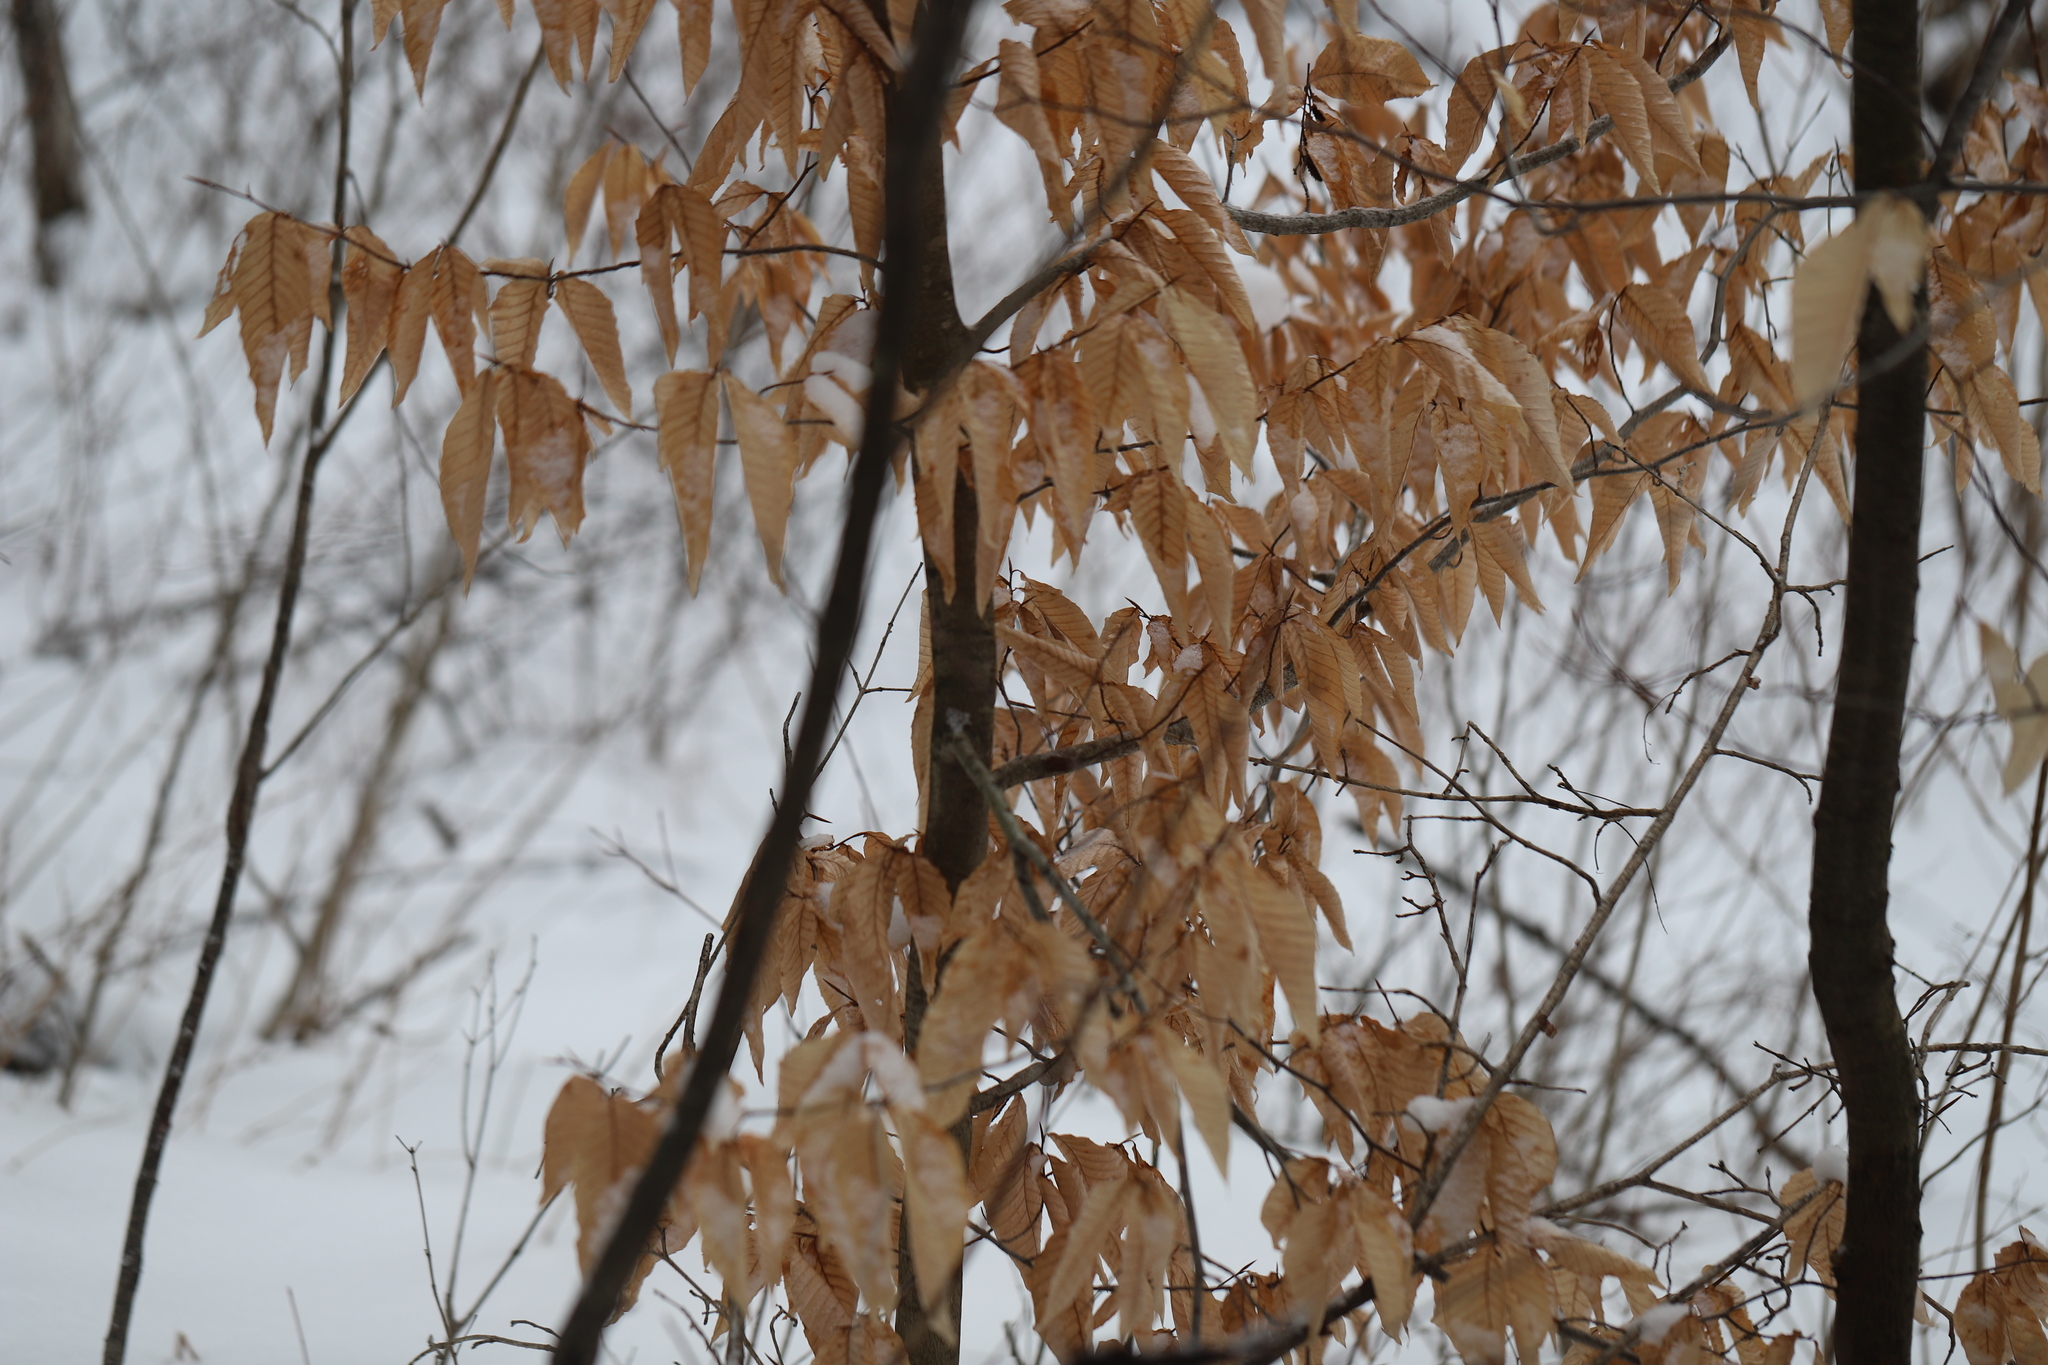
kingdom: Plantae
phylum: Tracheophyta
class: Magnoliopsida
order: Fagales
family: Fagaceae
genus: Fagus
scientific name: Fagus grandifolia
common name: American beech
